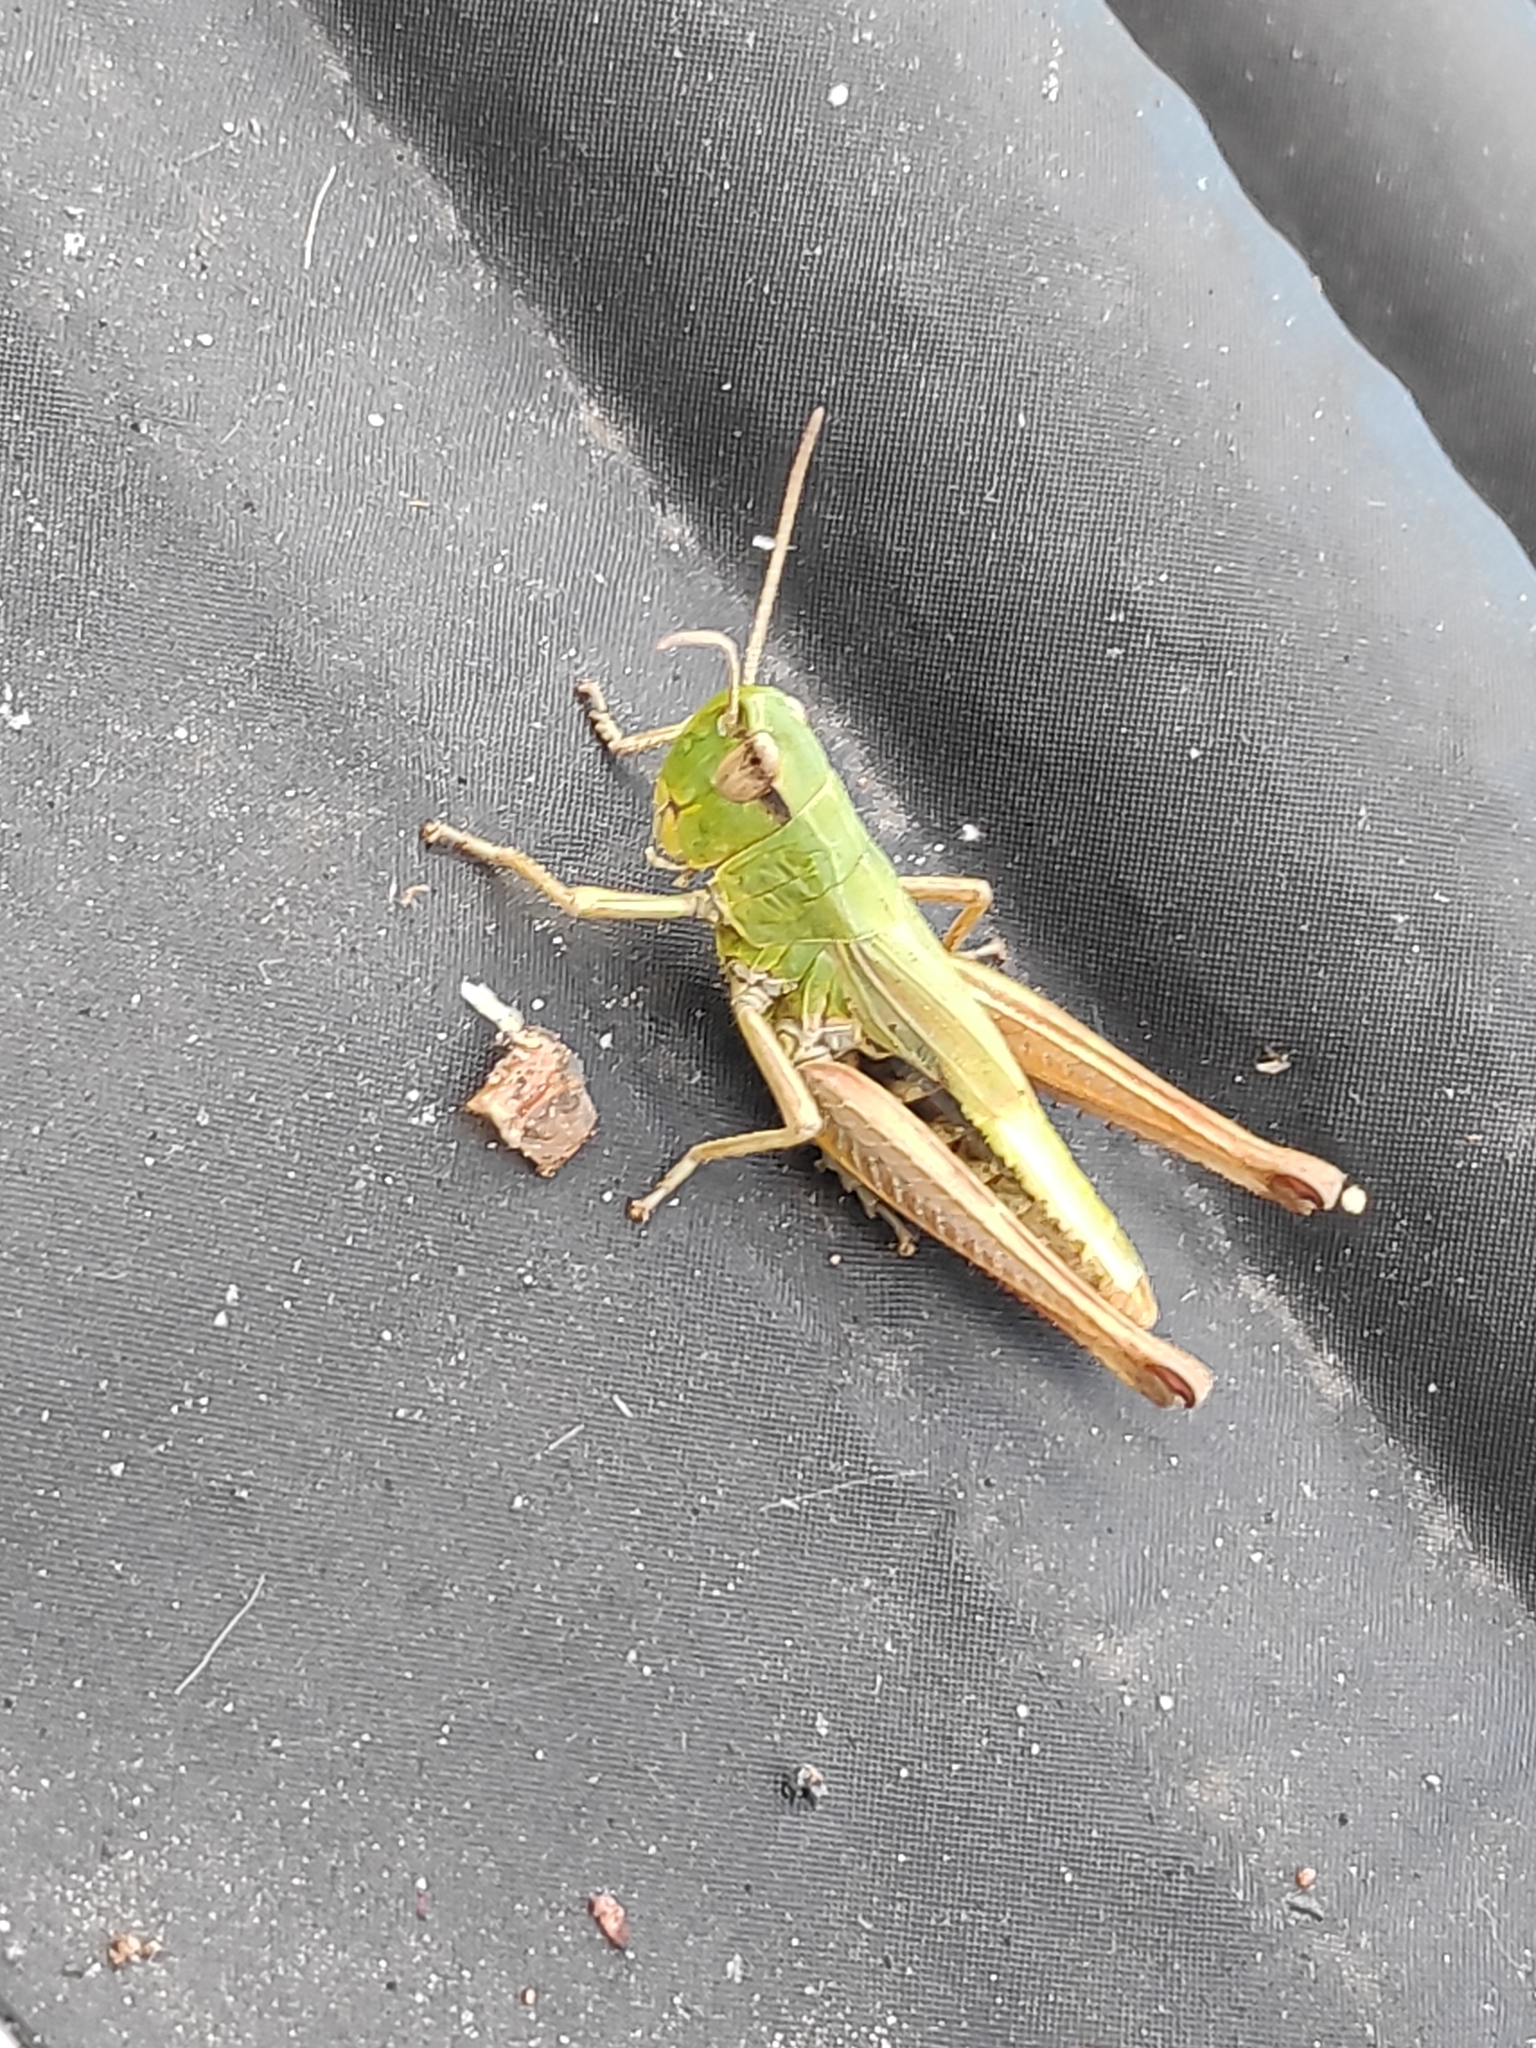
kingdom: Animalia
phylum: Arthropoda
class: Insecta
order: Orthoptera
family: Acrididae
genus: Pseudochorthippus
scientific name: Pseudochorthippus parallelus
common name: Meadow grasshopper
